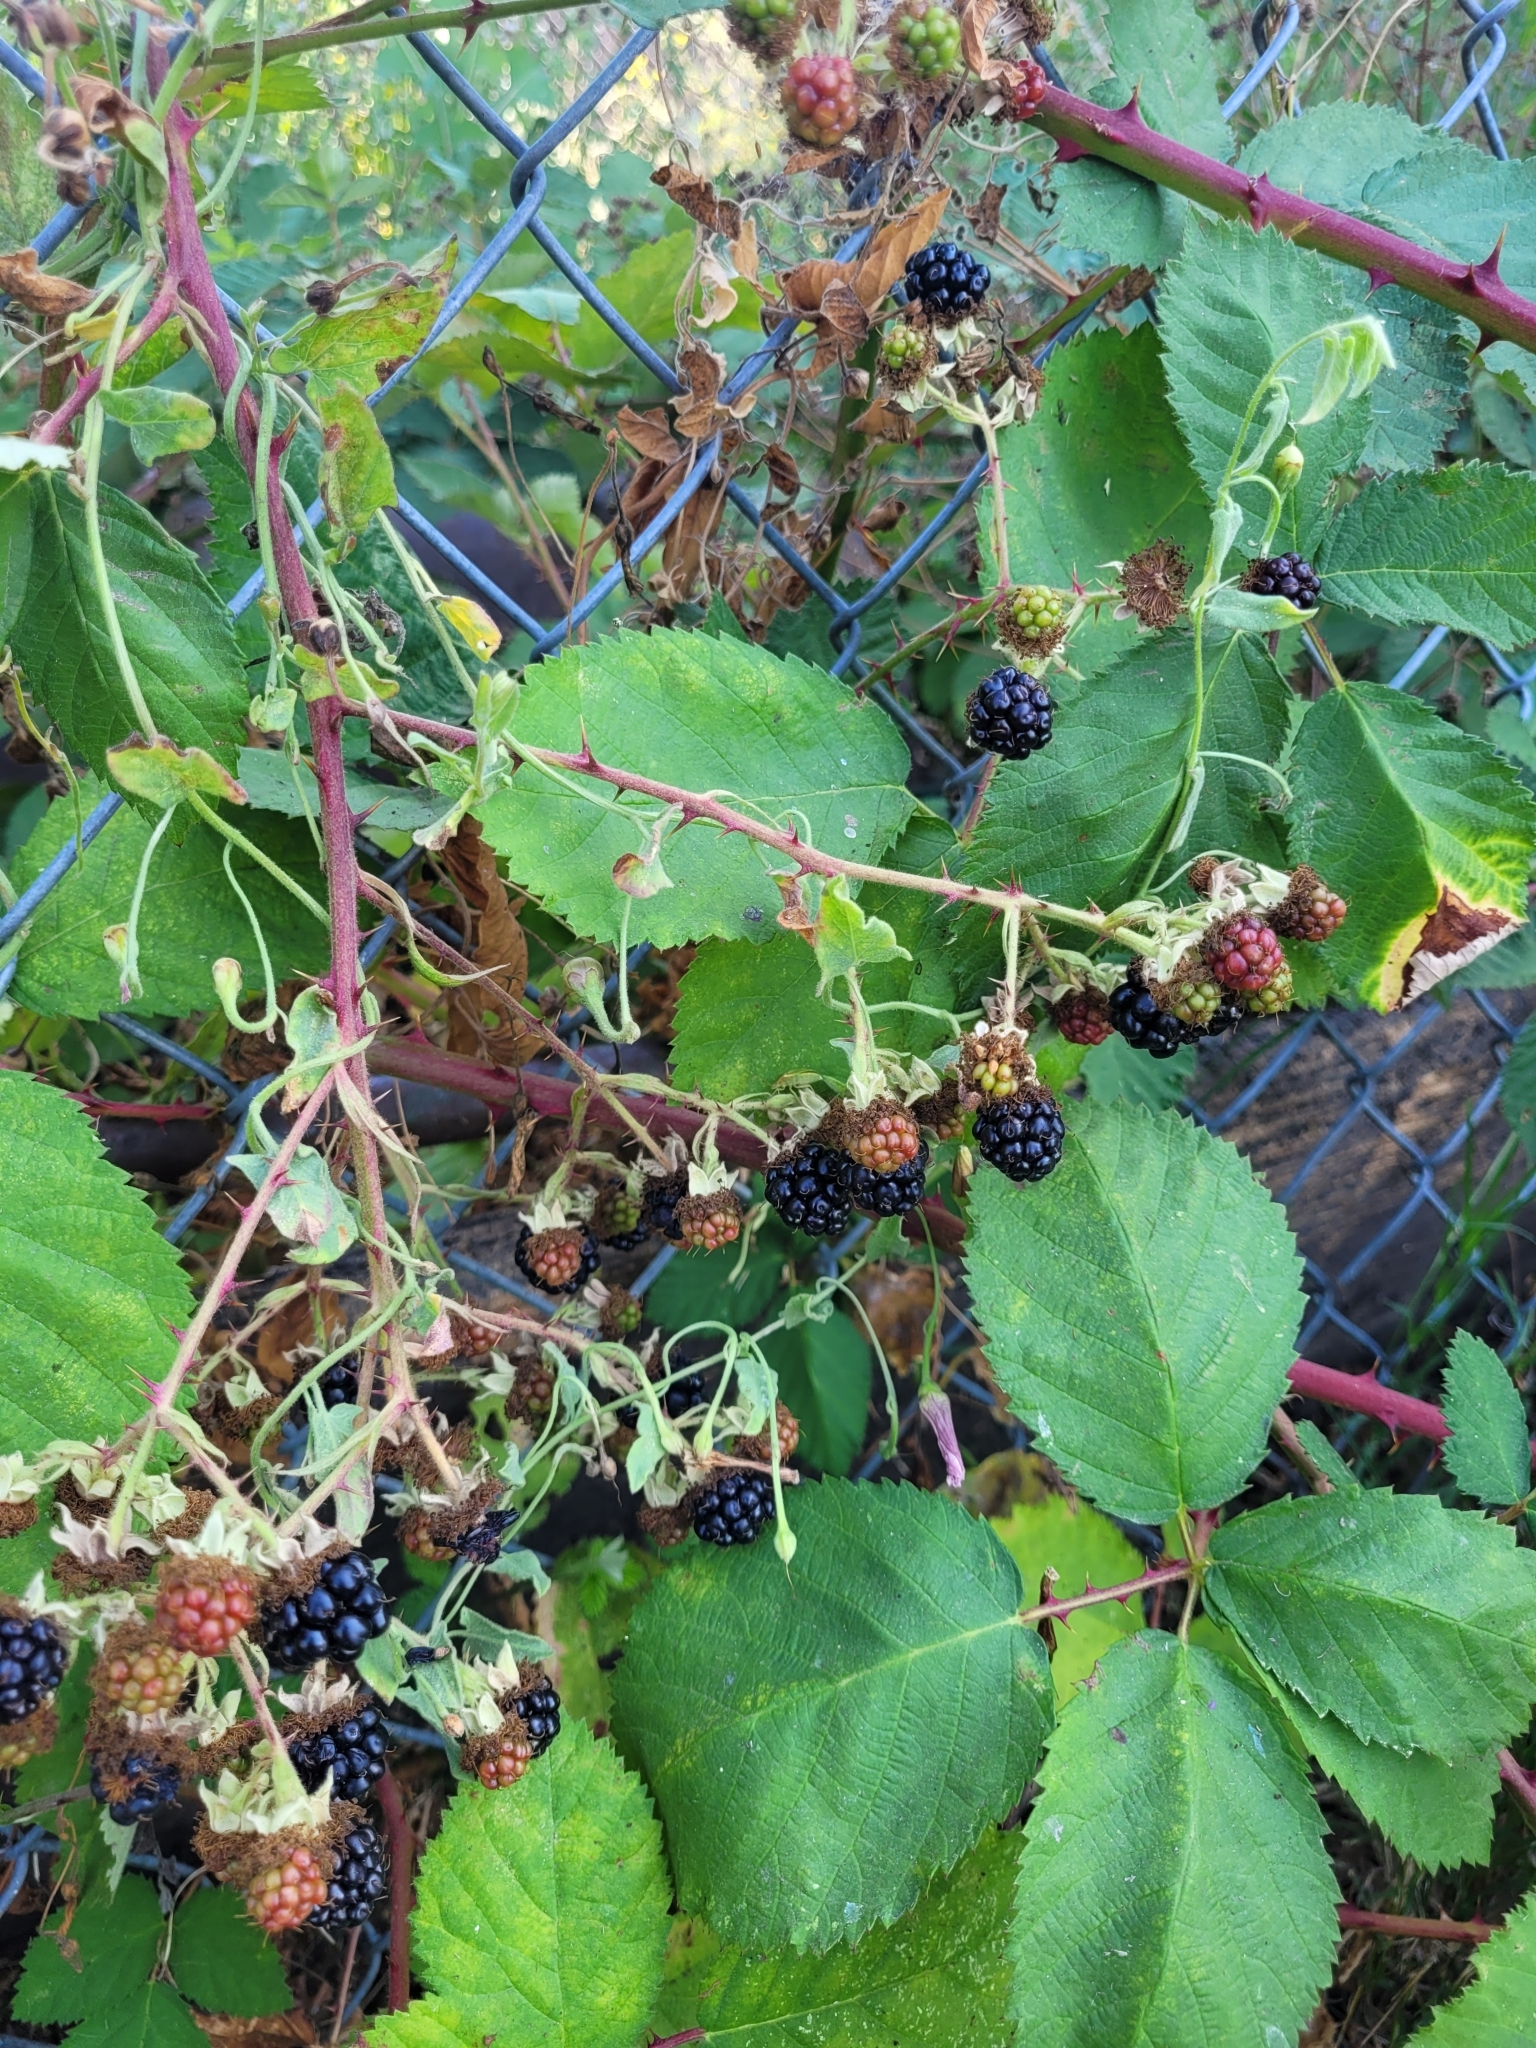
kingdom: Plantae
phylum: Tracheophyta
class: Magnoliopsida
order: Rosales
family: Rosaceae
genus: Rubus
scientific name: Rubus armeniacus
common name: Himalayan blackberry
